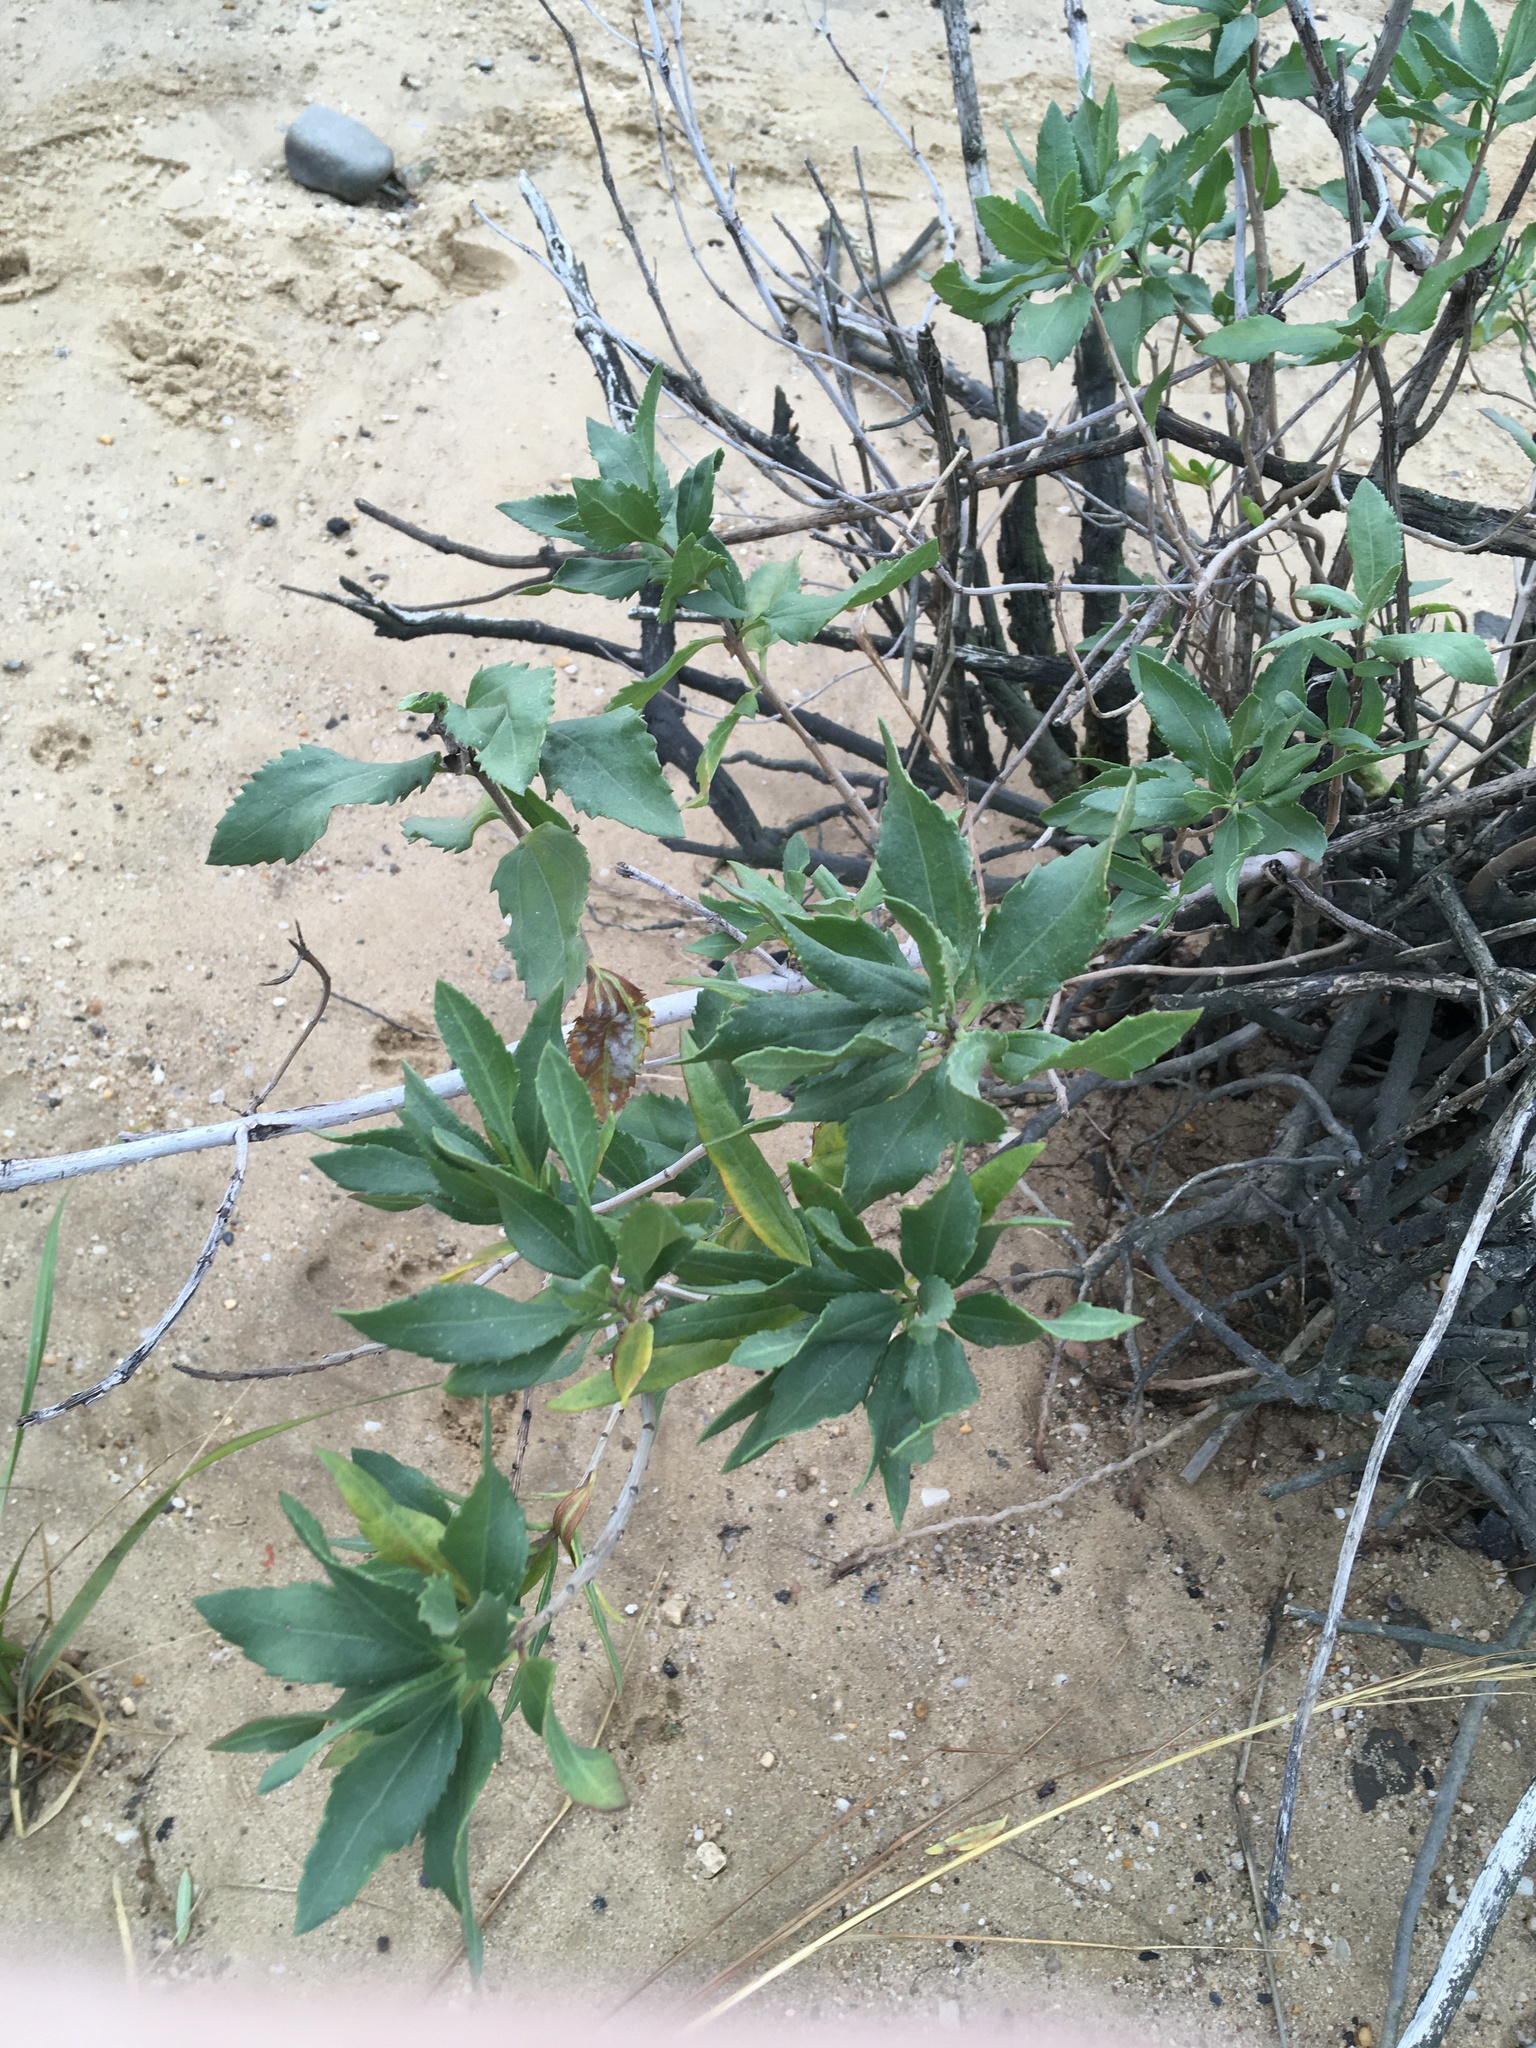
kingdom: Plantae
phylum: Tracheophyta
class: Magnoliopsida
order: Asterales
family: Asteraceae
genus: Iva
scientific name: Iva frutescens
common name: Big-leaved marsh-elder
